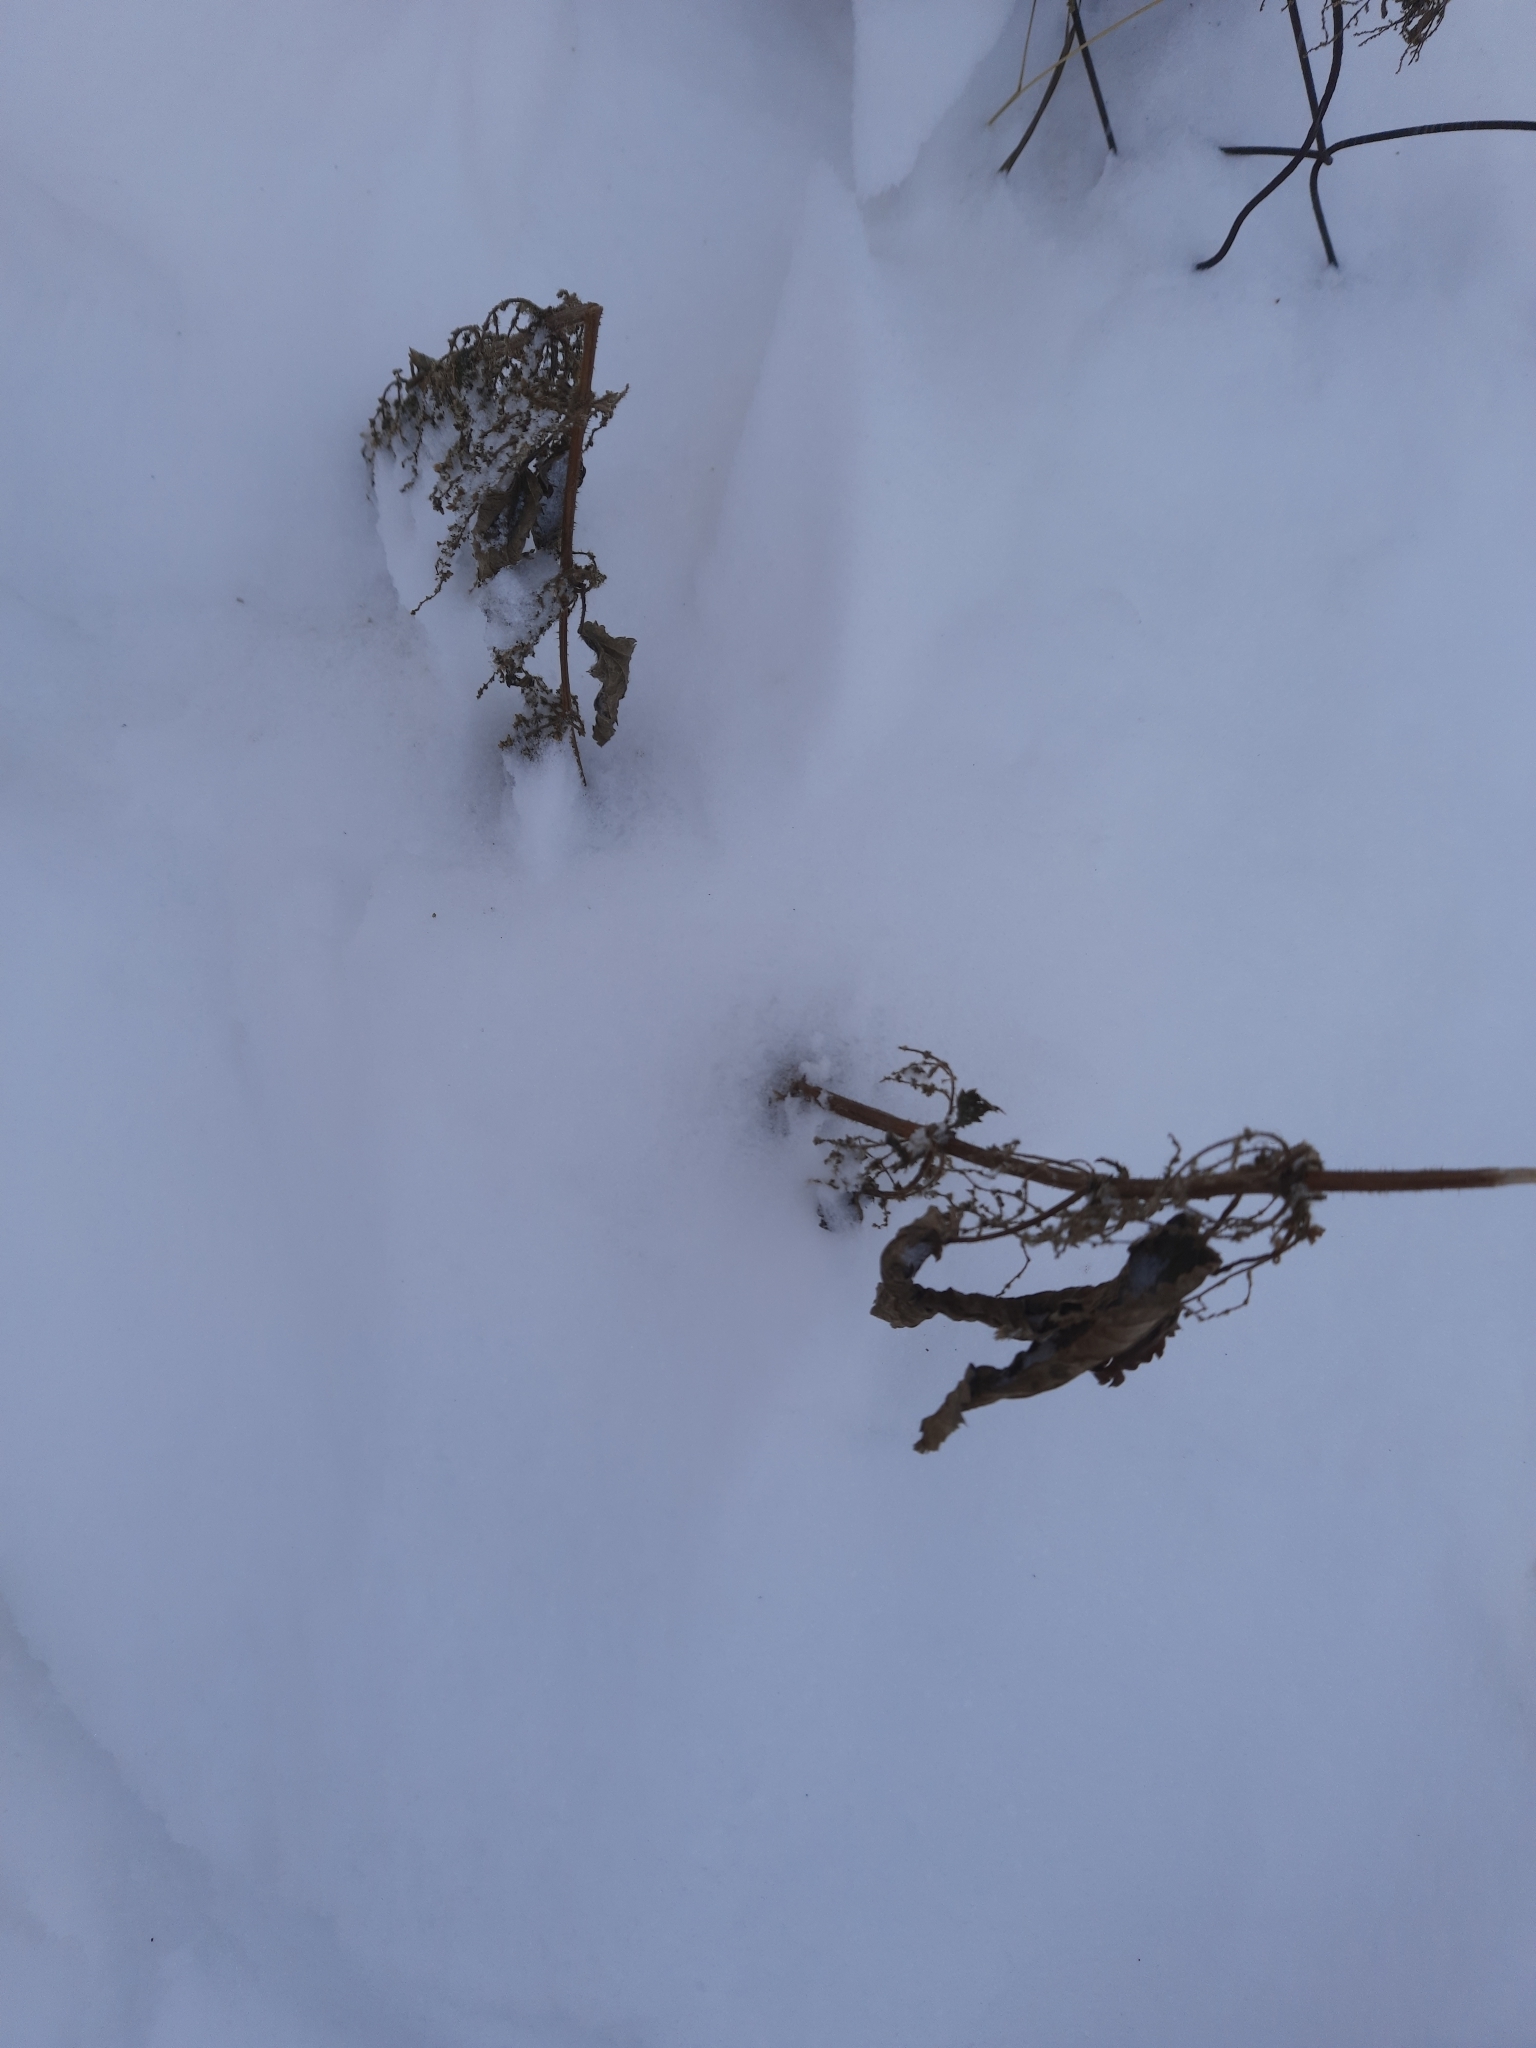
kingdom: Plantae
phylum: Tracheophyta
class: Magnoliopsida
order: Rosales
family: Urticaceae
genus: Urtica
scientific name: Urtica dioica
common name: Common nettle
